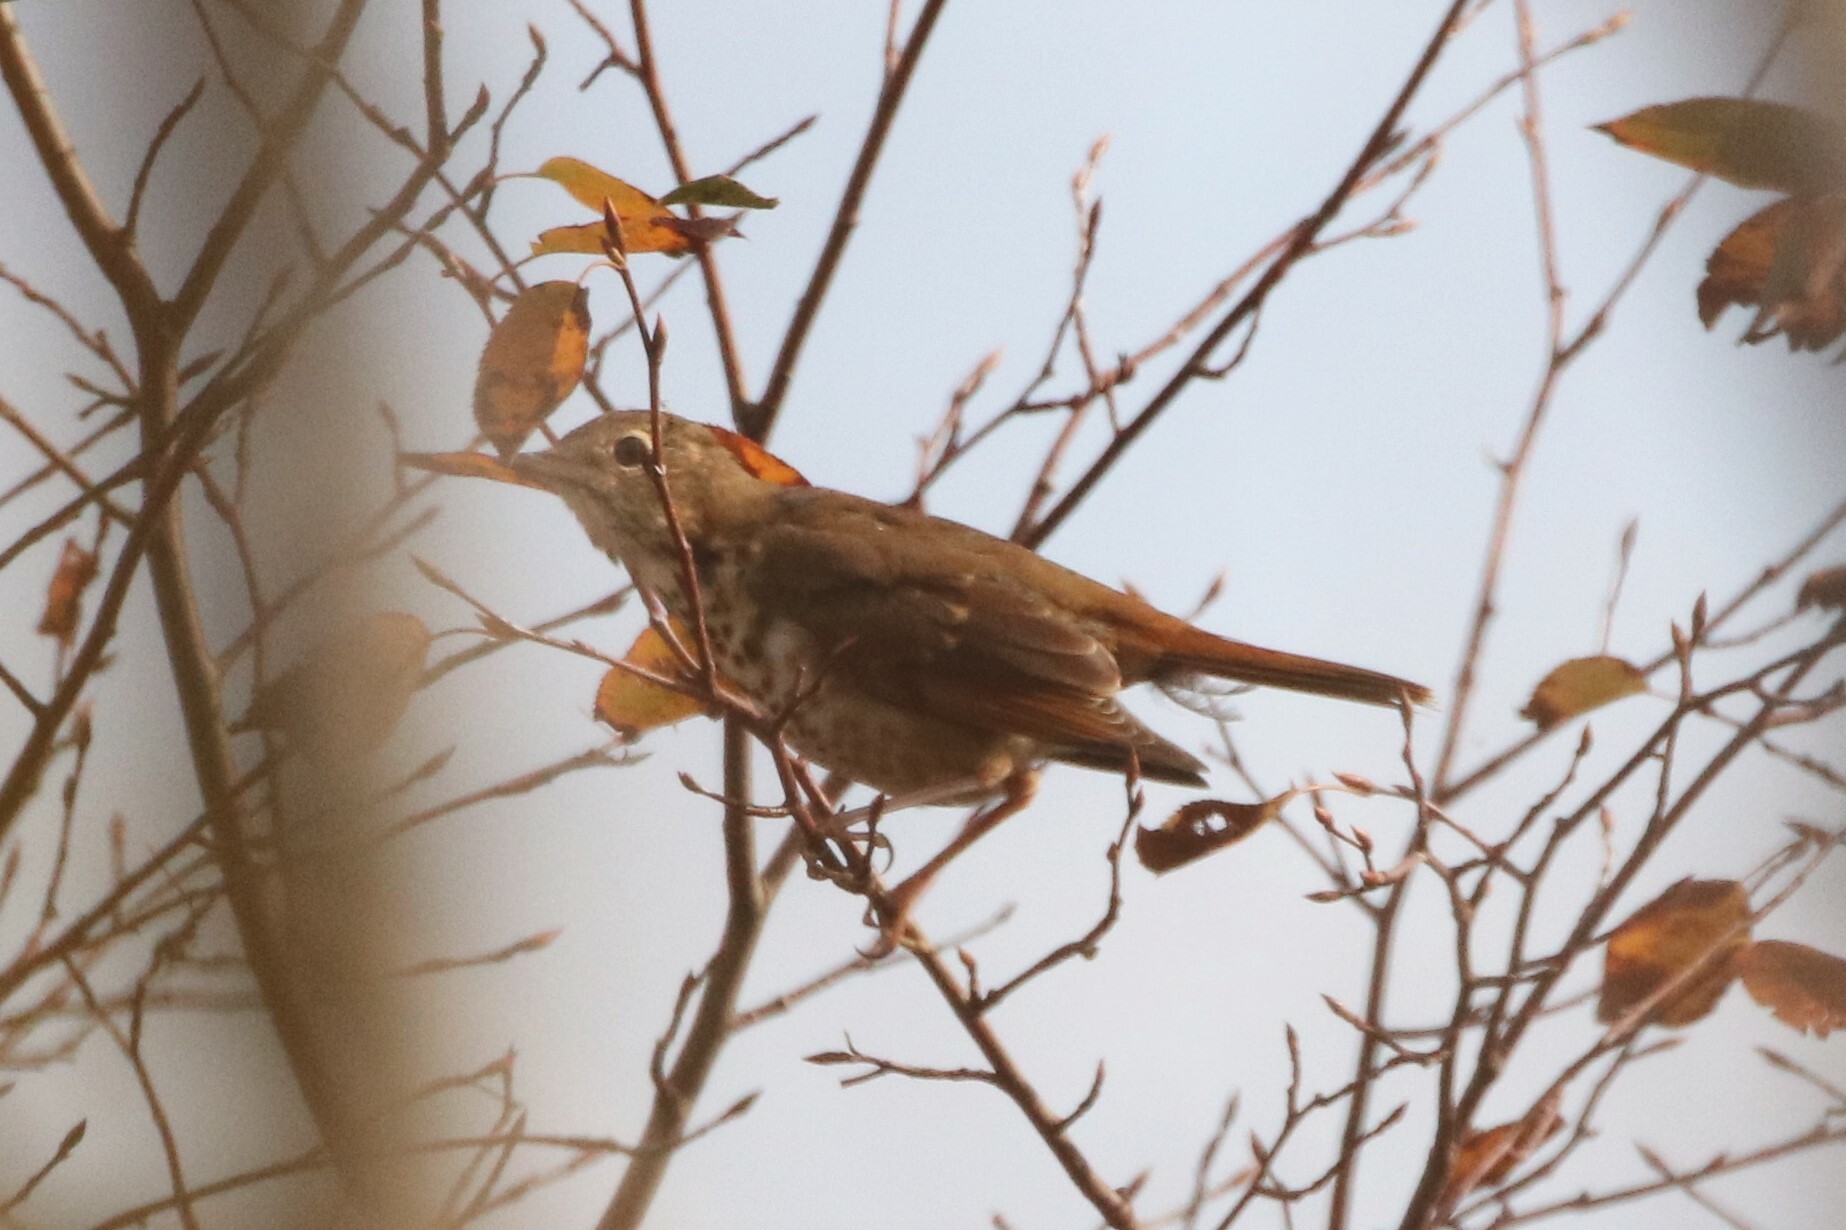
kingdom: Animalia
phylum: Chordata
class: Aves
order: Passeriformes
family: Turdidae
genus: Catharus
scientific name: Catharus guttatus
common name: Hermit thrush
